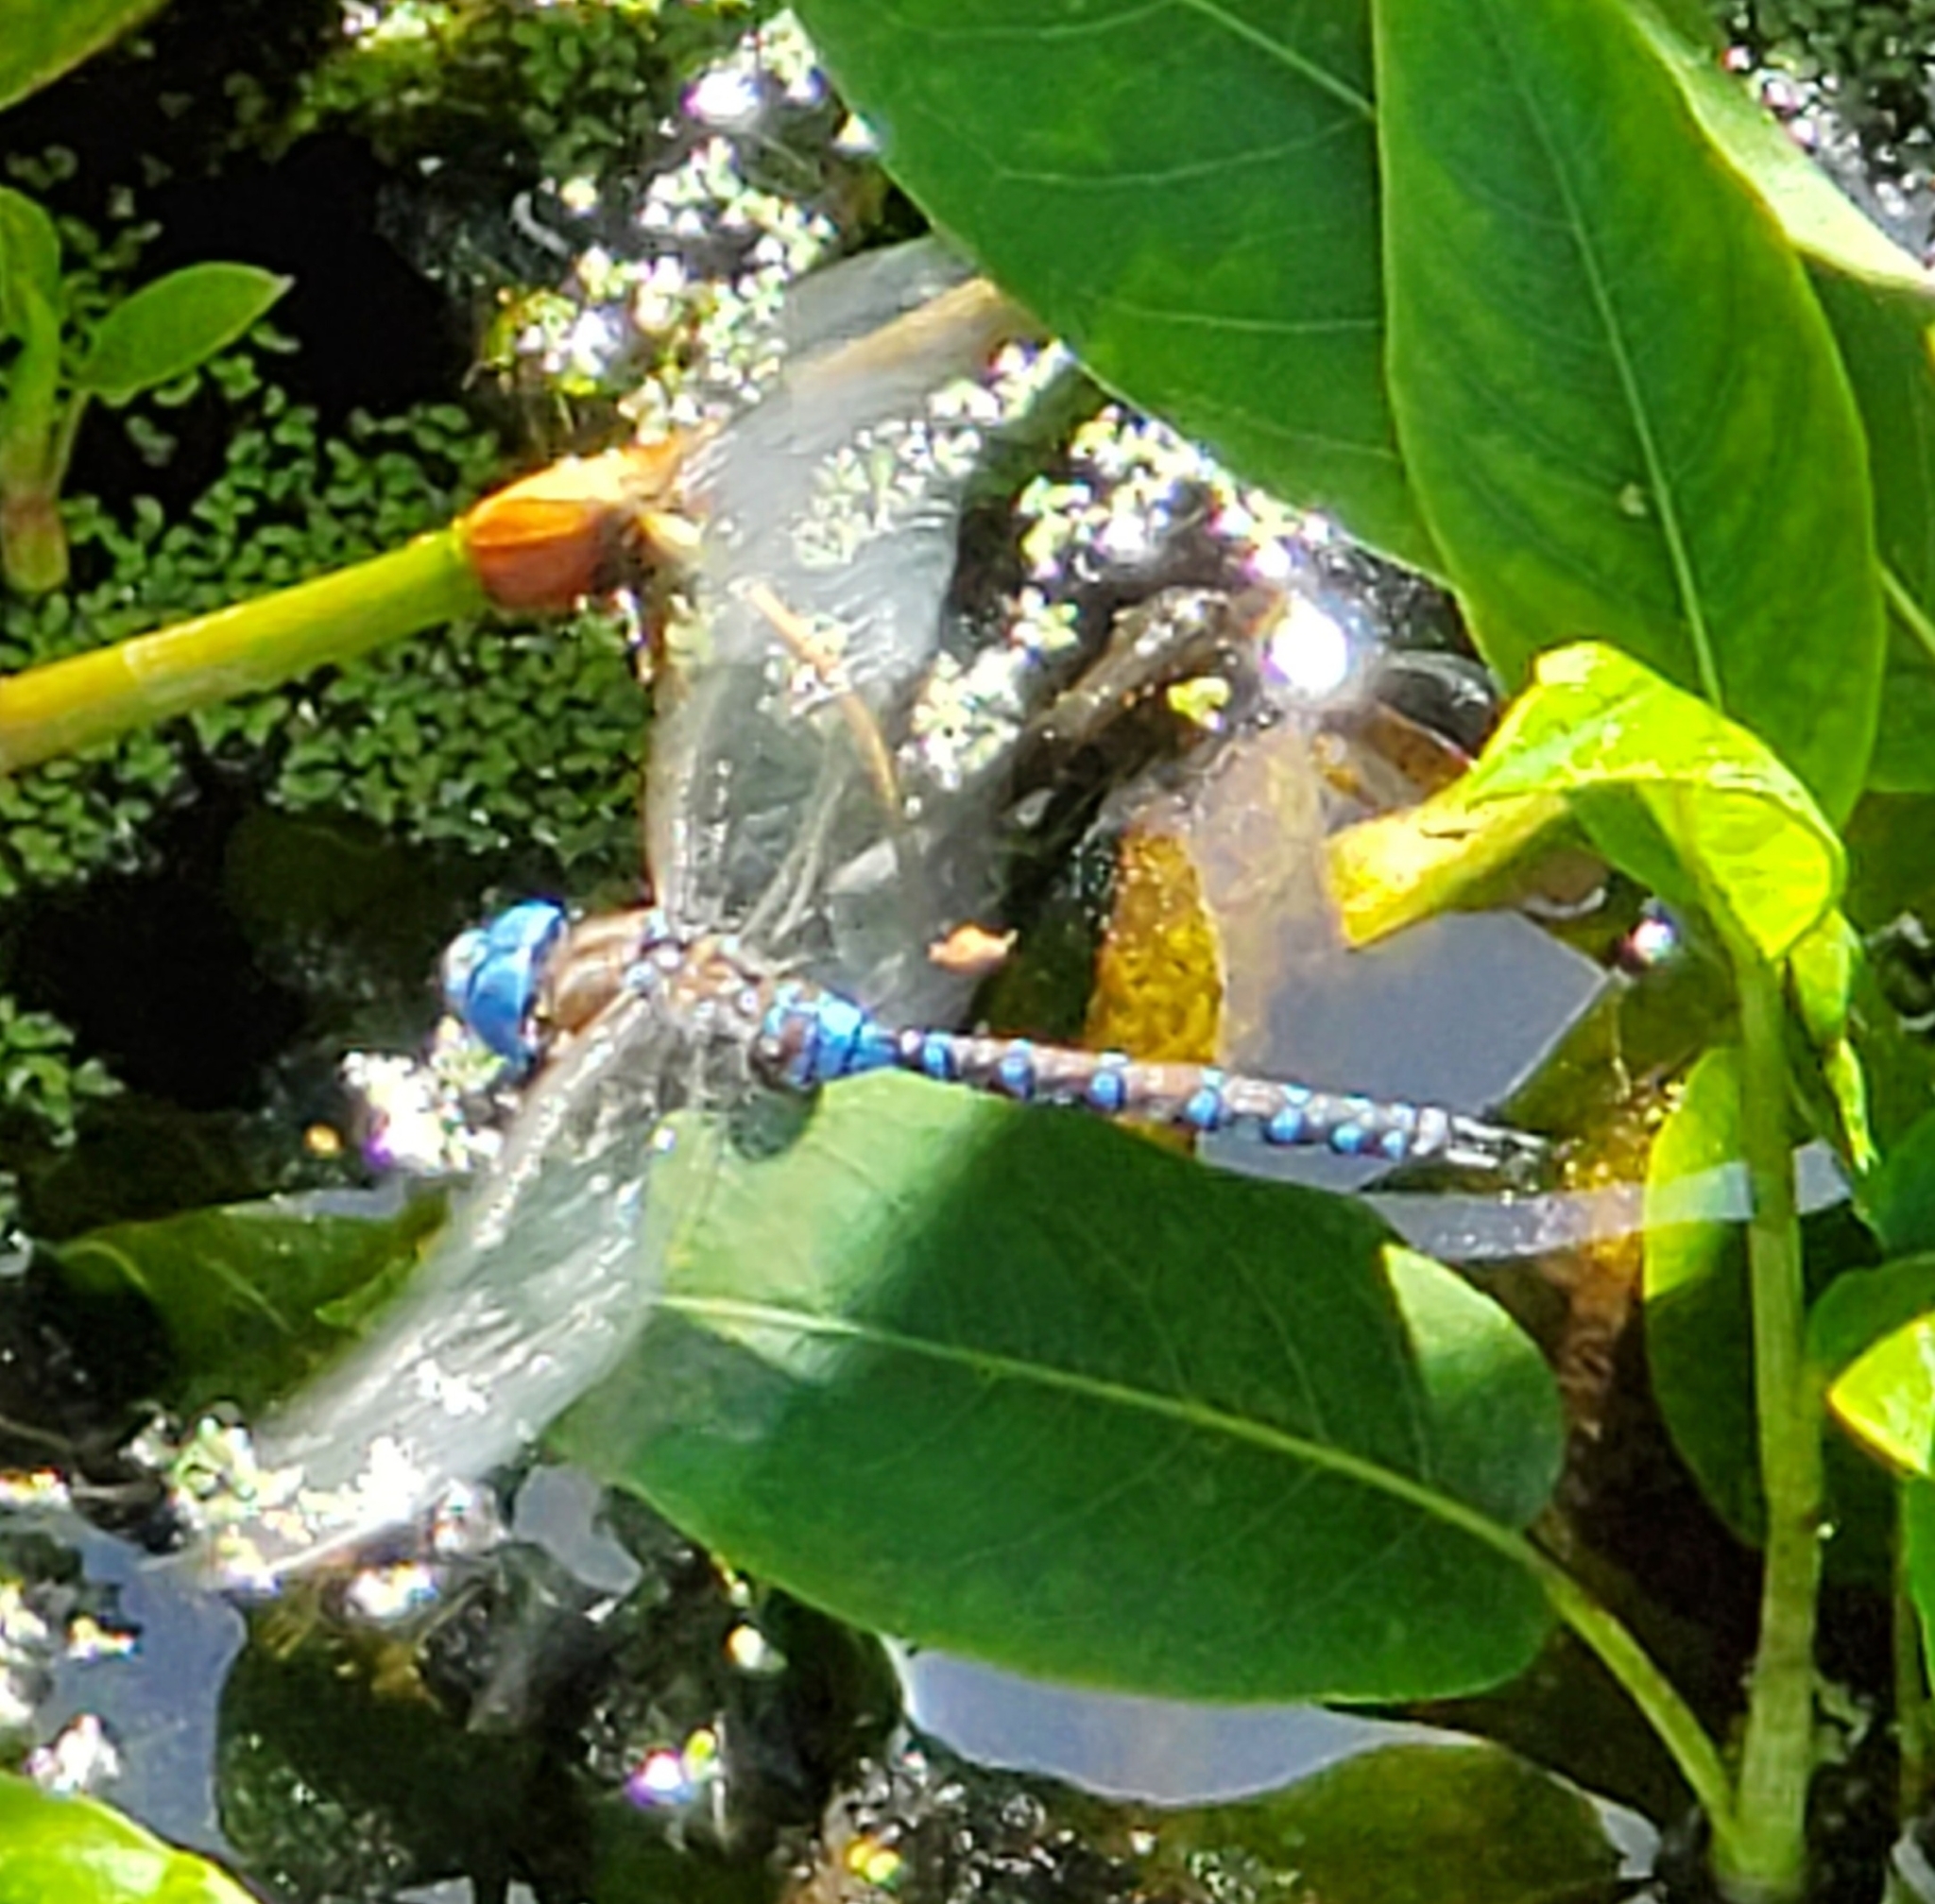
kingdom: Animalia
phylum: Arthropoda
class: Insecta
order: Odonata
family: Aeshnidae
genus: Rhionaeschna
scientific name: Rhionaeschna multicolor
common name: Blue-eyed darner
